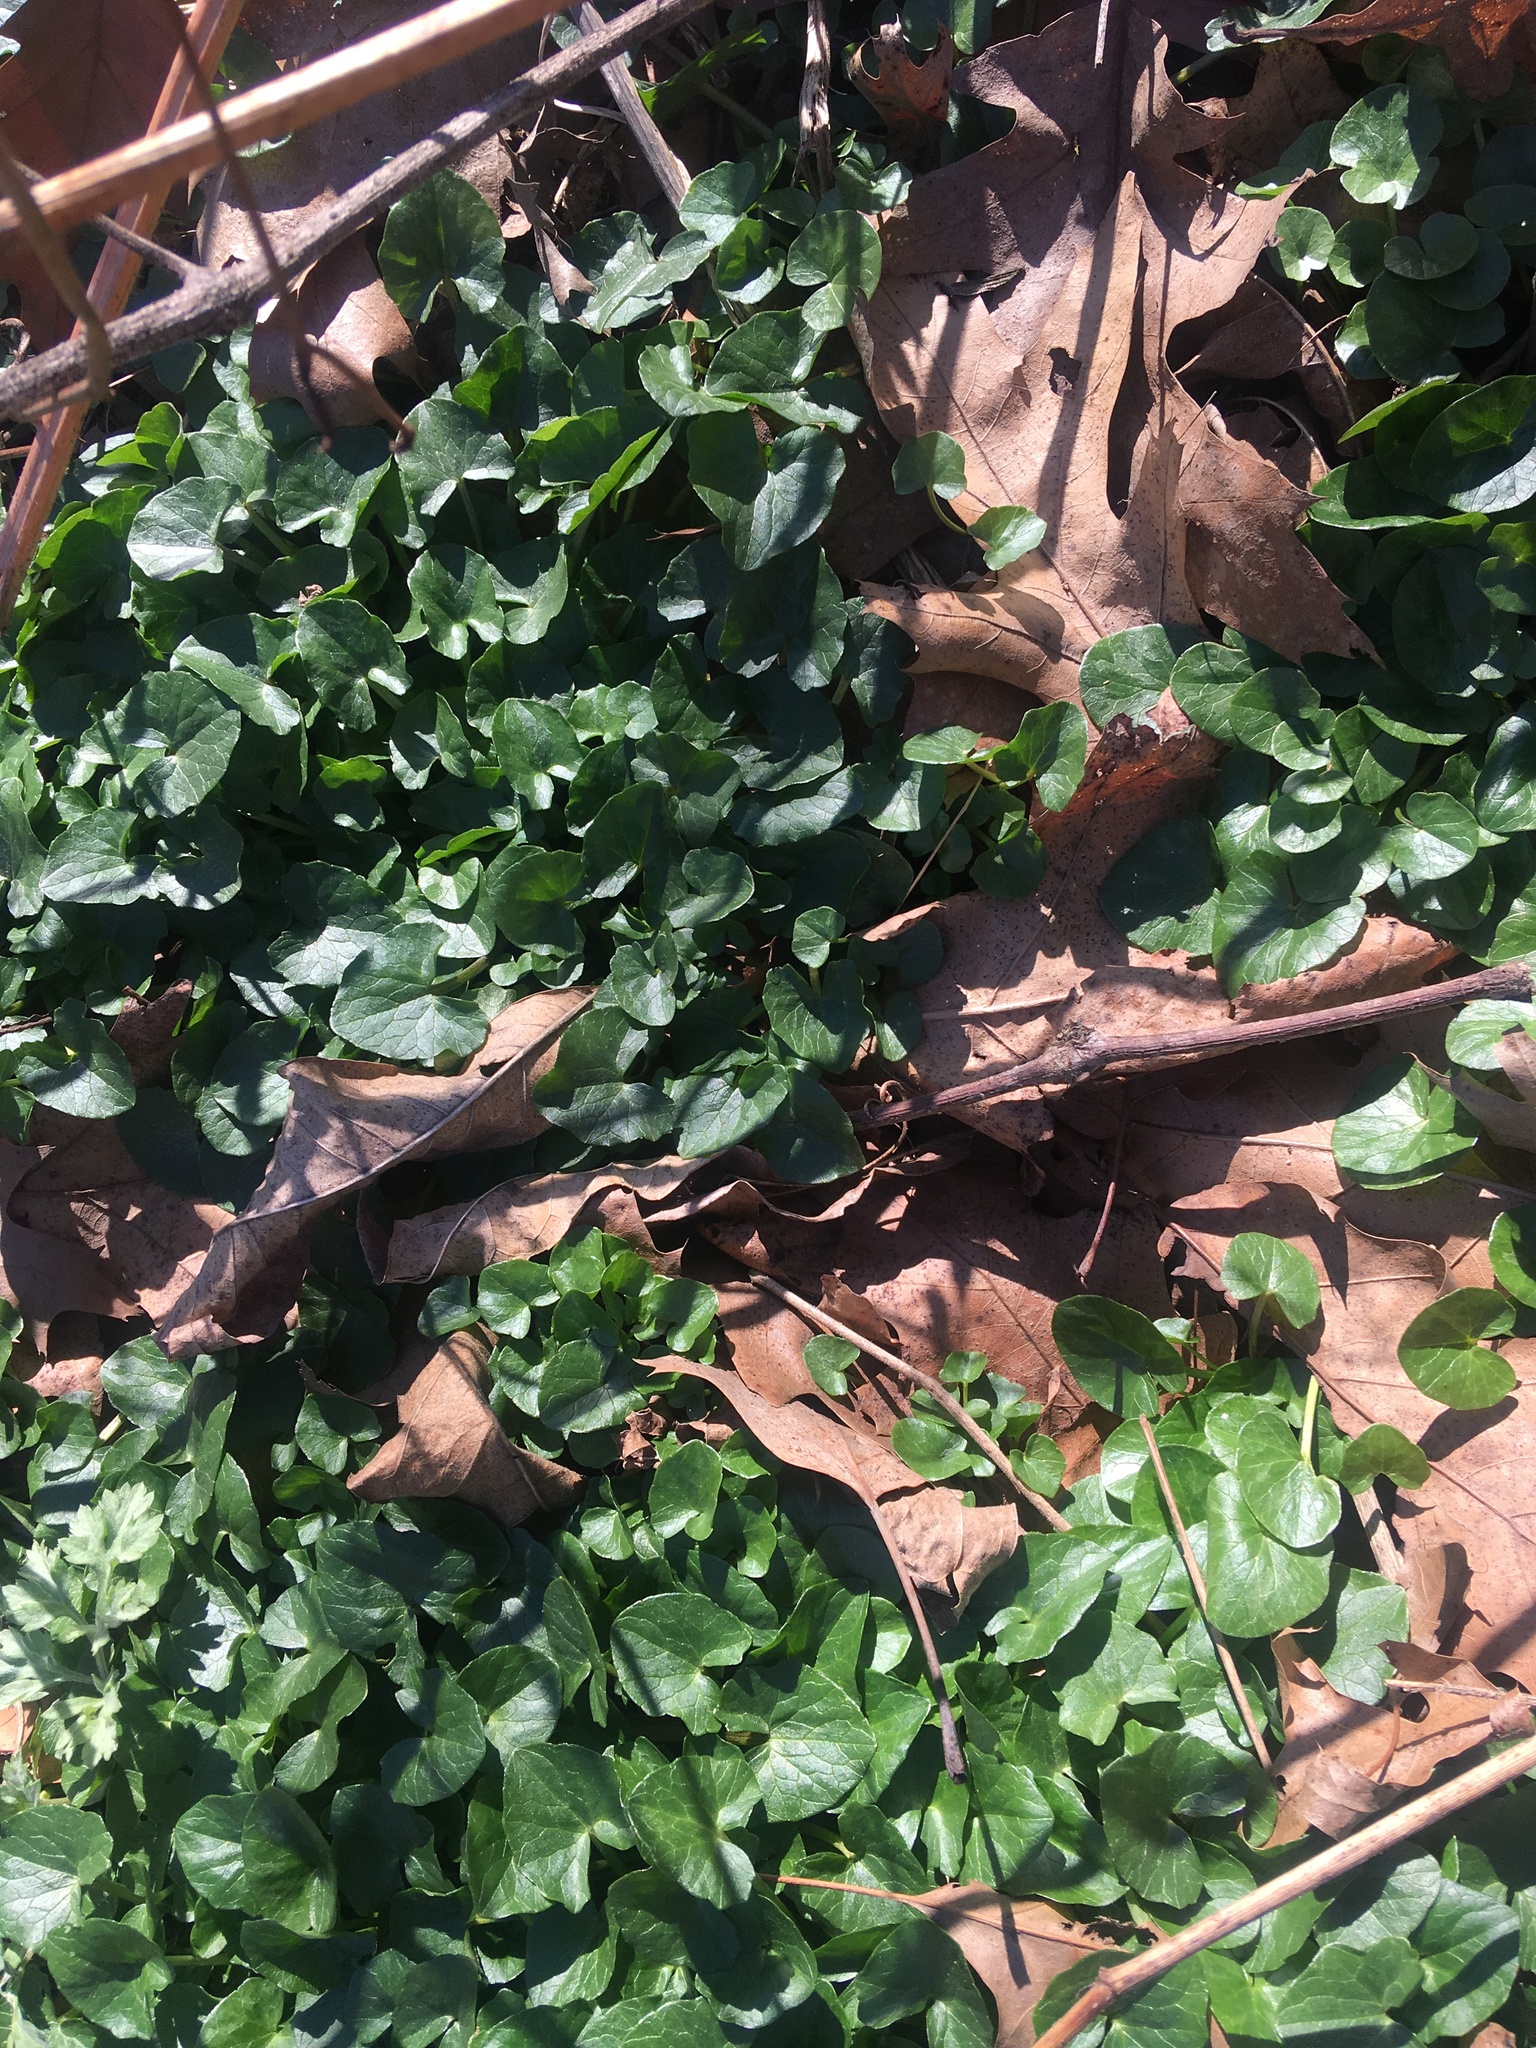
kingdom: Plantae
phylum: Tracheophyta
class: Magnoliopsida
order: Ranunculales
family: Ranunculaceae
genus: Ficaria
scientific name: Ficaria verna
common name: Lesser celandine
